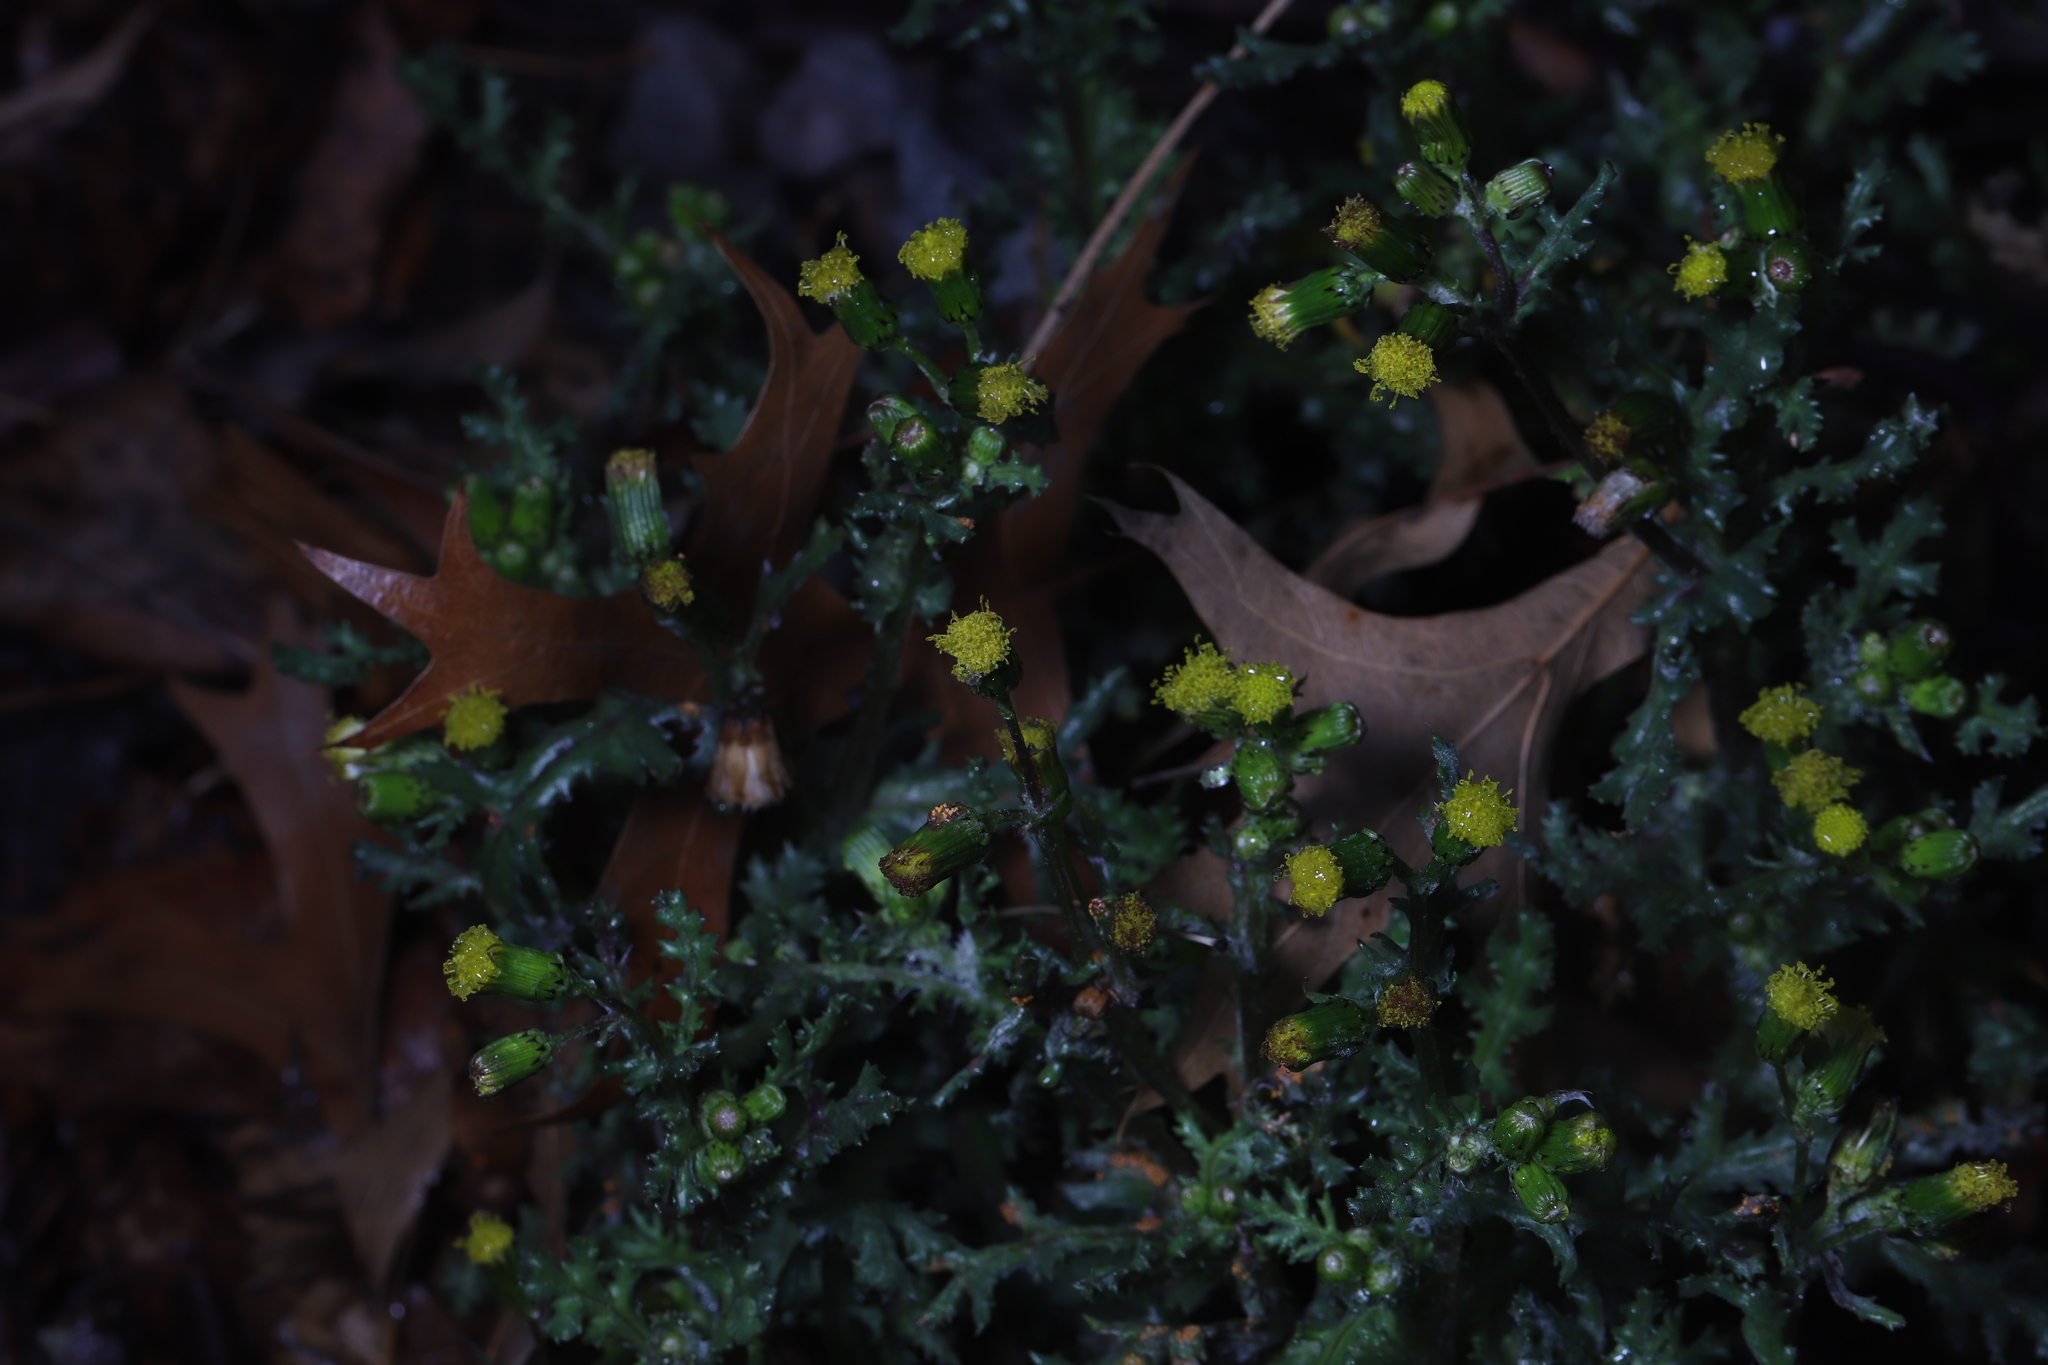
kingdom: Plantae
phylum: Tracheophyta
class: Magnoliopsida
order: Asterales
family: Asteraceae
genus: Senecio
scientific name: Senecio vulgaris
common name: Old-man-in-the-spring
